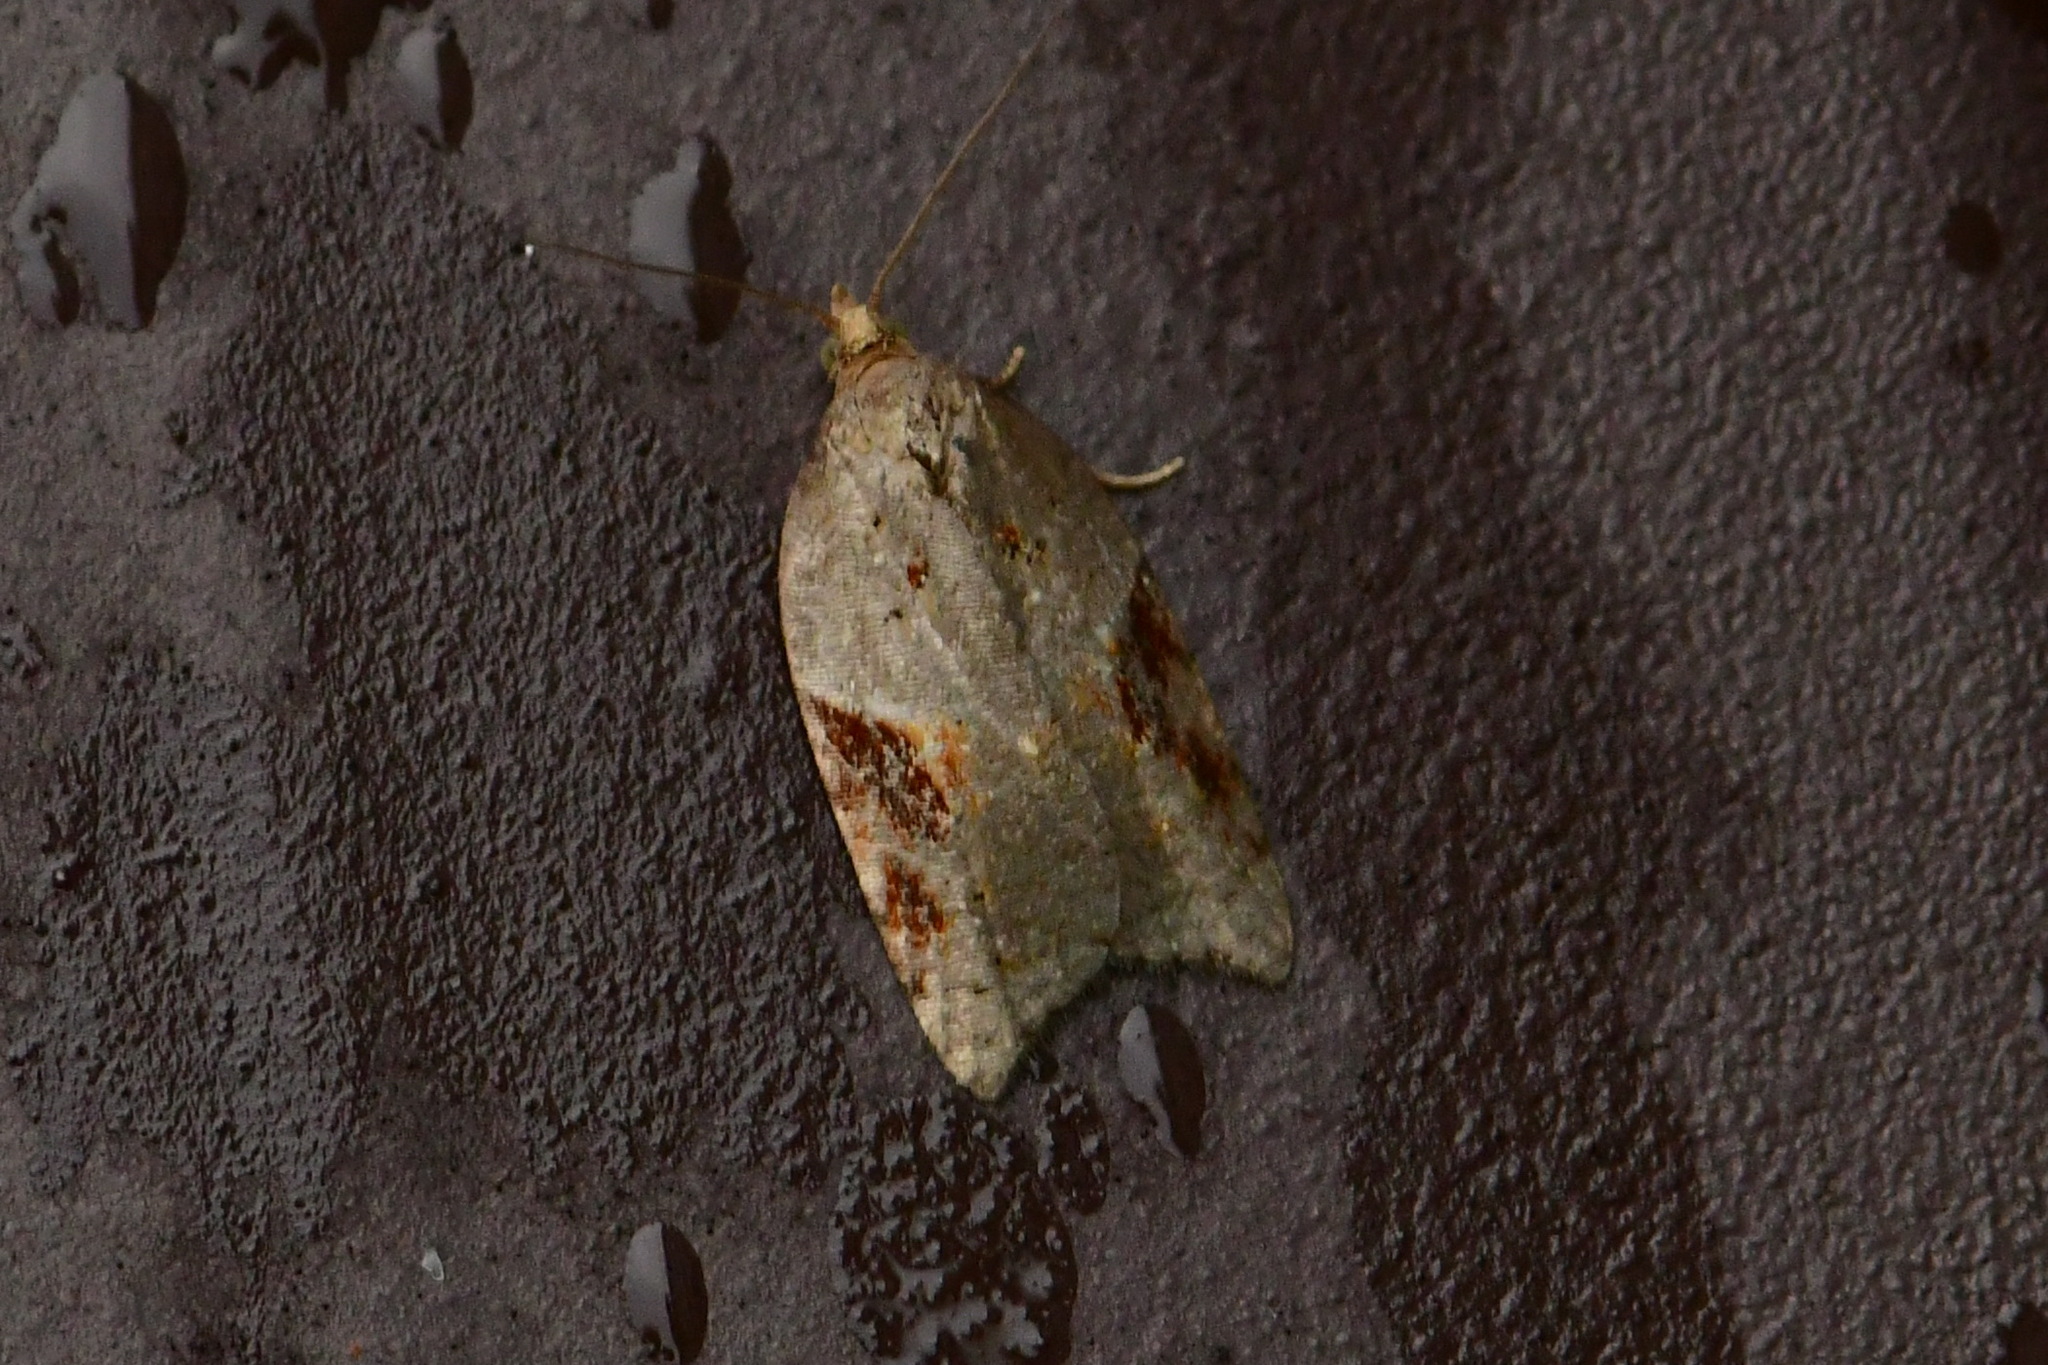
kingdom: Animalia
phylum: Arthropoda
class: Insecta
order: Lepidoptera
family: Tortricidae
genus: Acleris
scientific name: Acleris laterana
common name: Dark-triangle button
